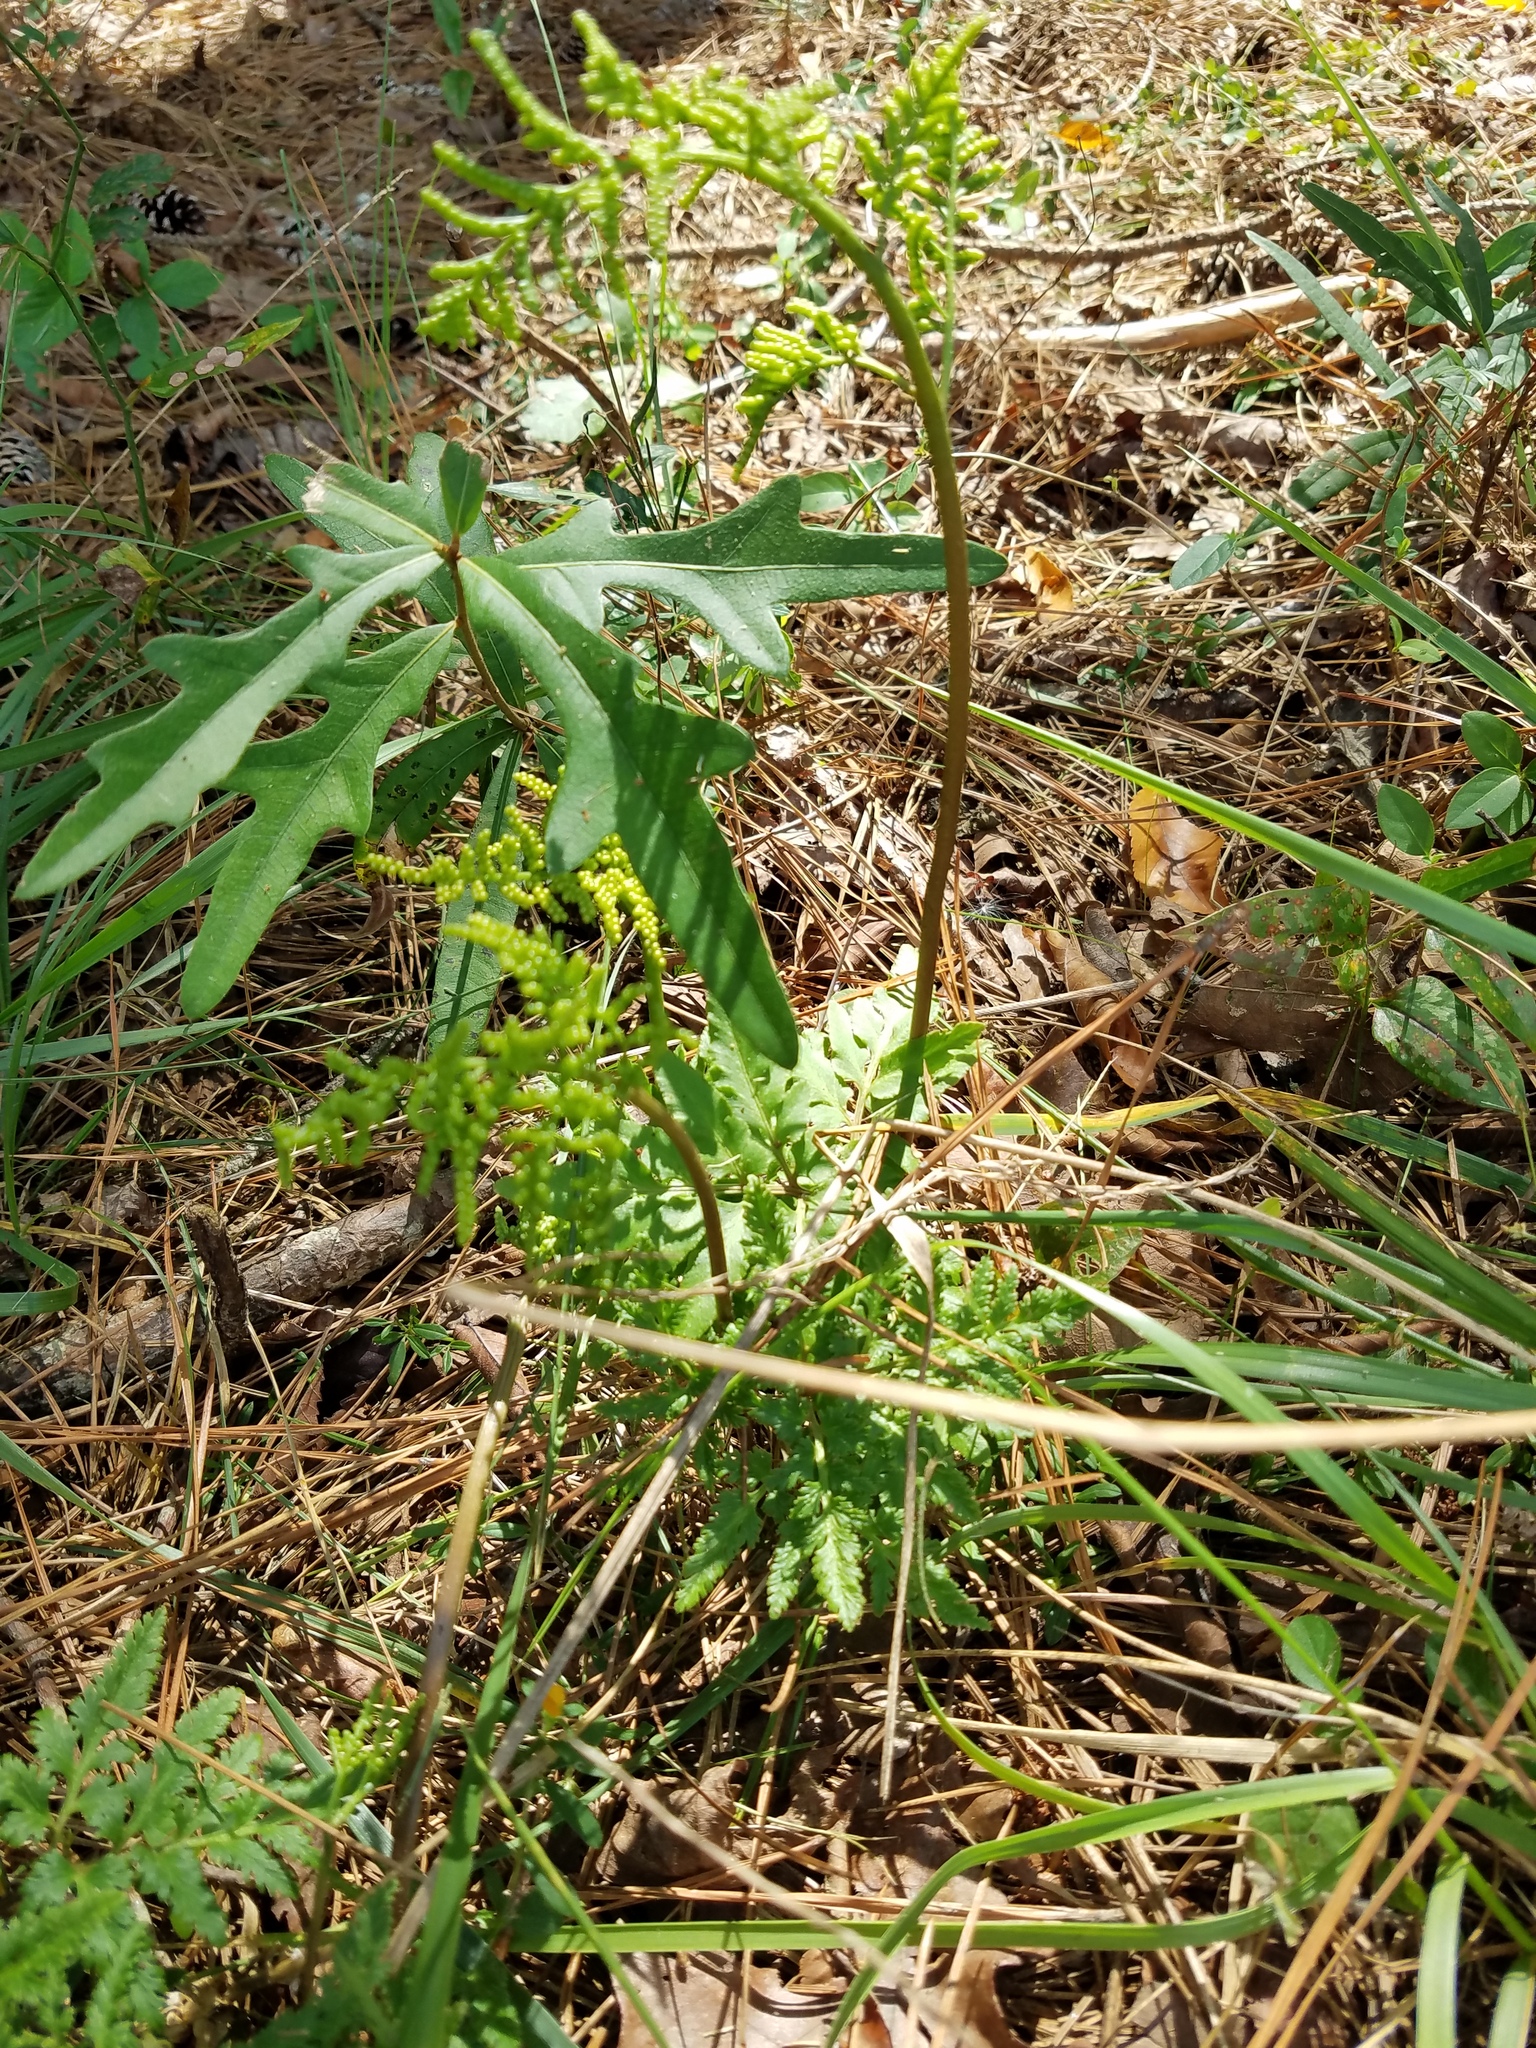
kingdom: Plantae
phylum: Tracheophyta
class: Polypodiopsida
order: Ophioglossales
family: Ophioglossaceae
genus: Sceptridium
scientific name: Sceptridium dissectum
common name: Cut-leaved grapefern
